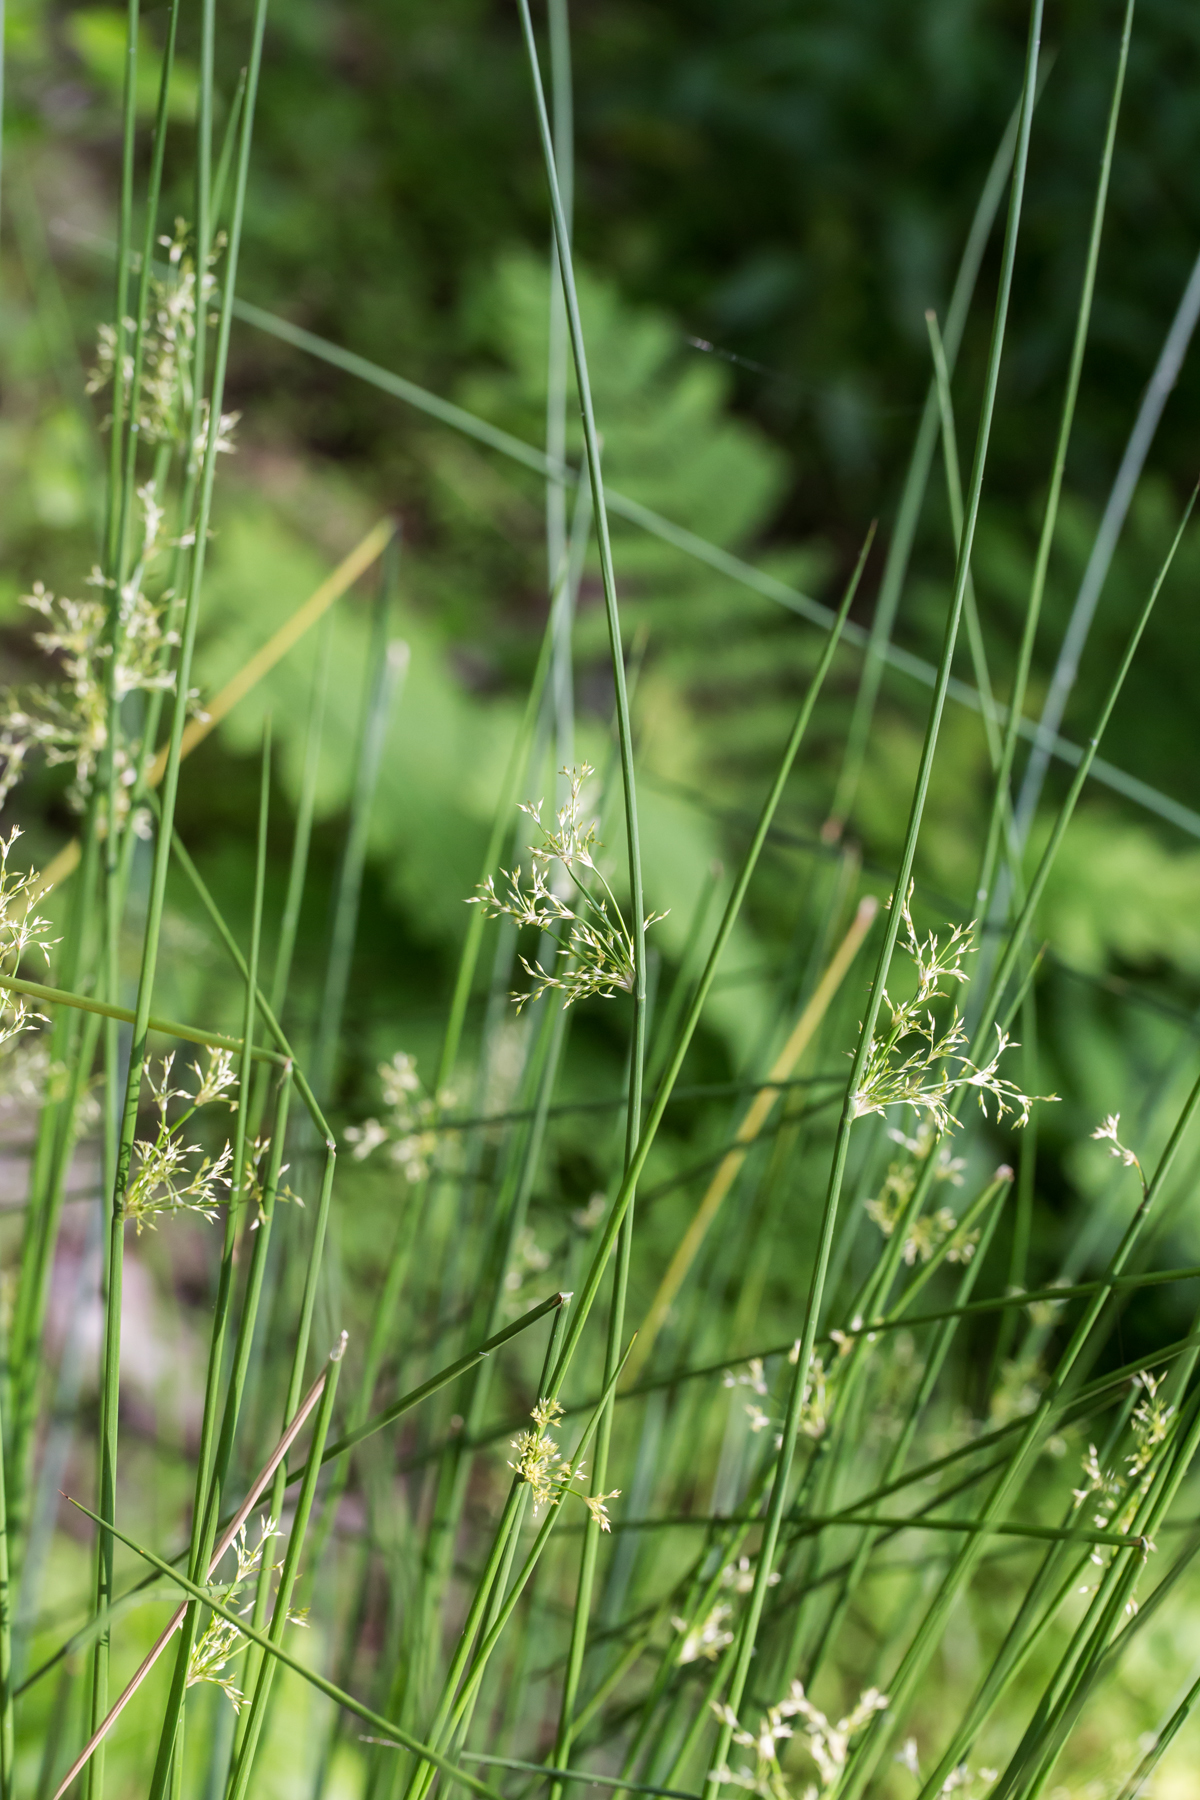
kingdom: Plantae
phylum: Tracheophyta
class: Liliopsida
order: Poales
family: Juncaceae
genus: Juncus
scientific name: Juncus effusus
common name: Soft rush
